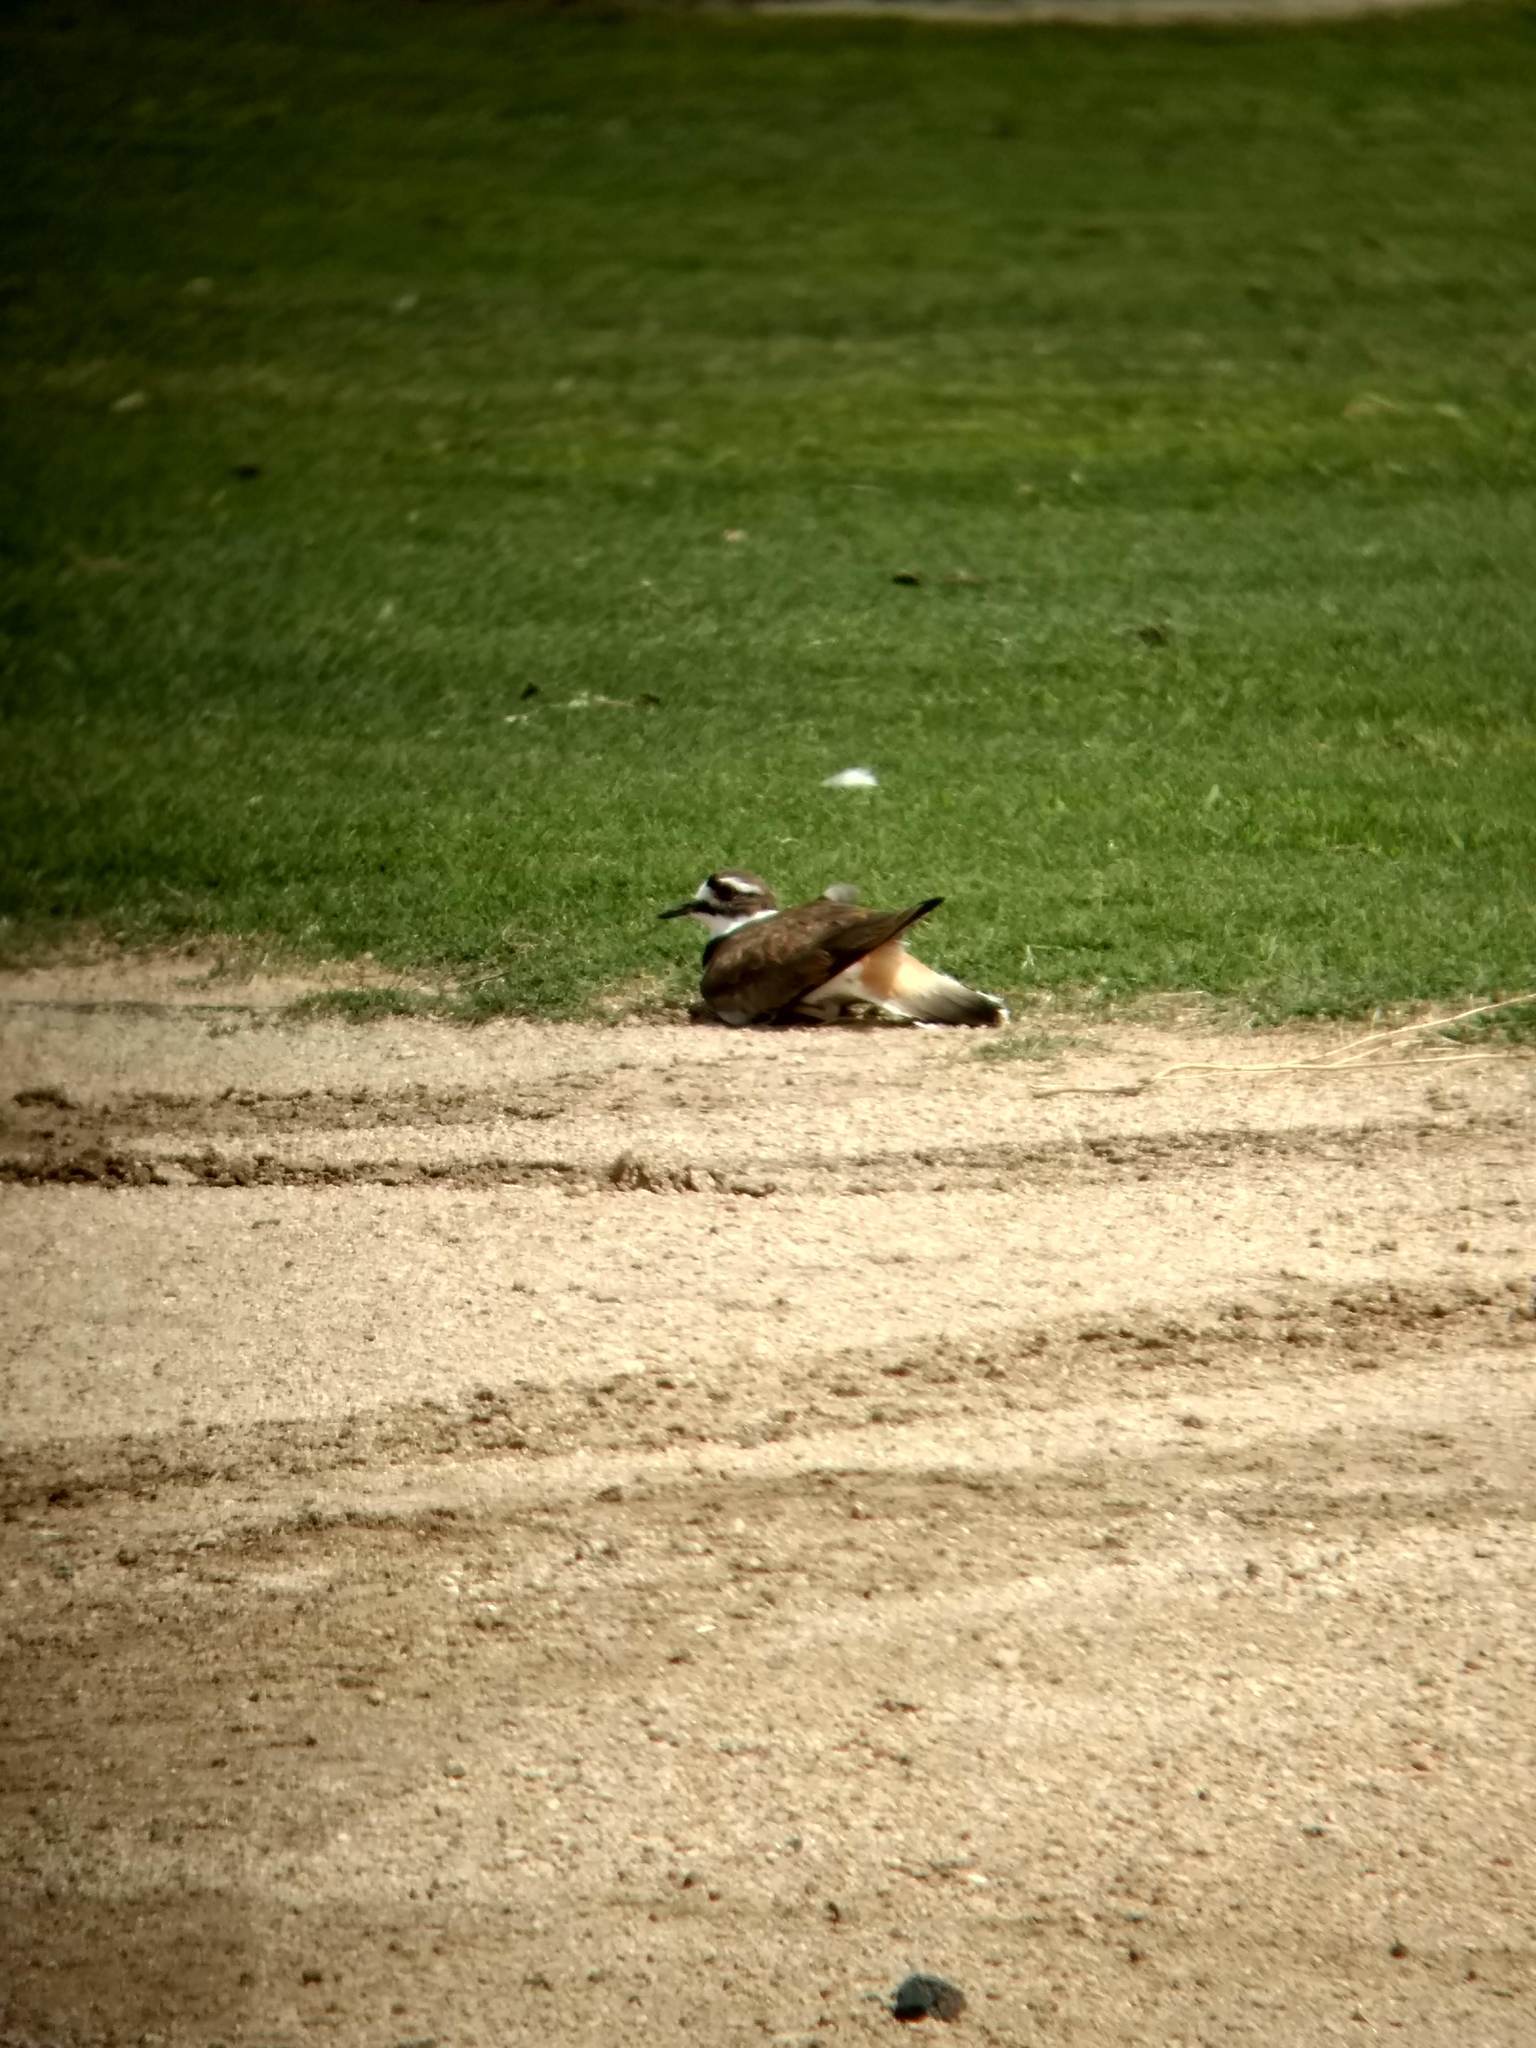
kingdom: Animalia
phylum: Chordata
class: Aves
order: Charadriiformes
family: Charadriidae
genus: Charadrius
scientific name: Charadrius vociferus
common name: Killdeer
